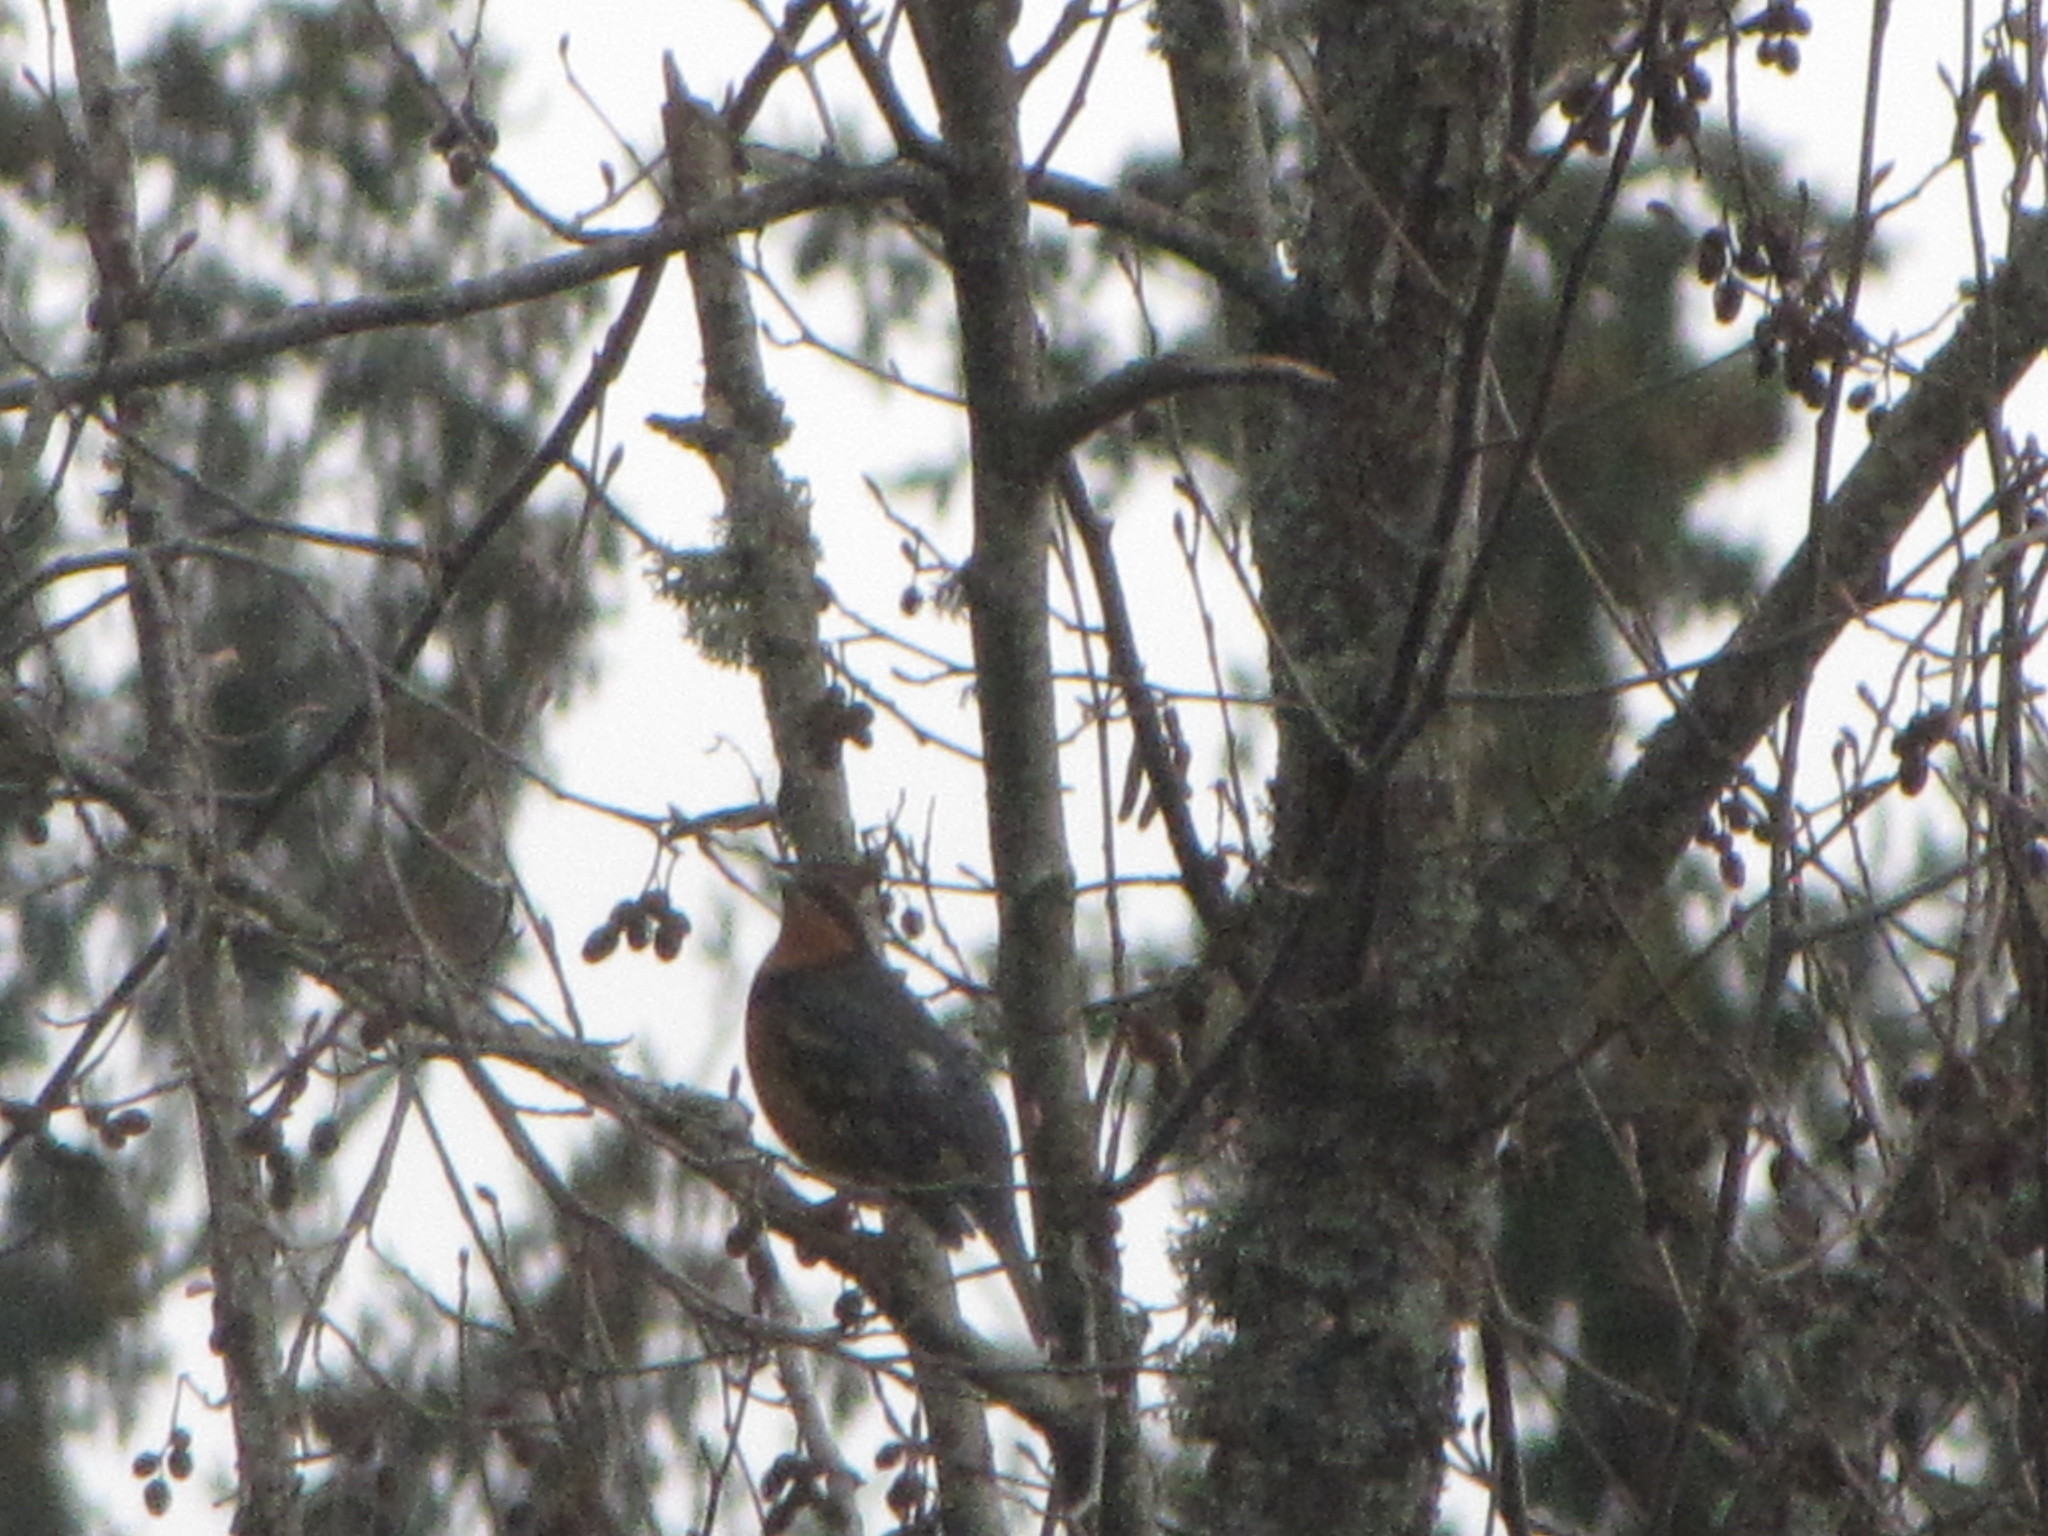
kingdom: Animalia
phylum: Chordata
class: Aves
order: Passeriformes
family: Turdidae
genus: Ixoreus
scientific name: Ixoreus naevius
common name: Varied thrush
